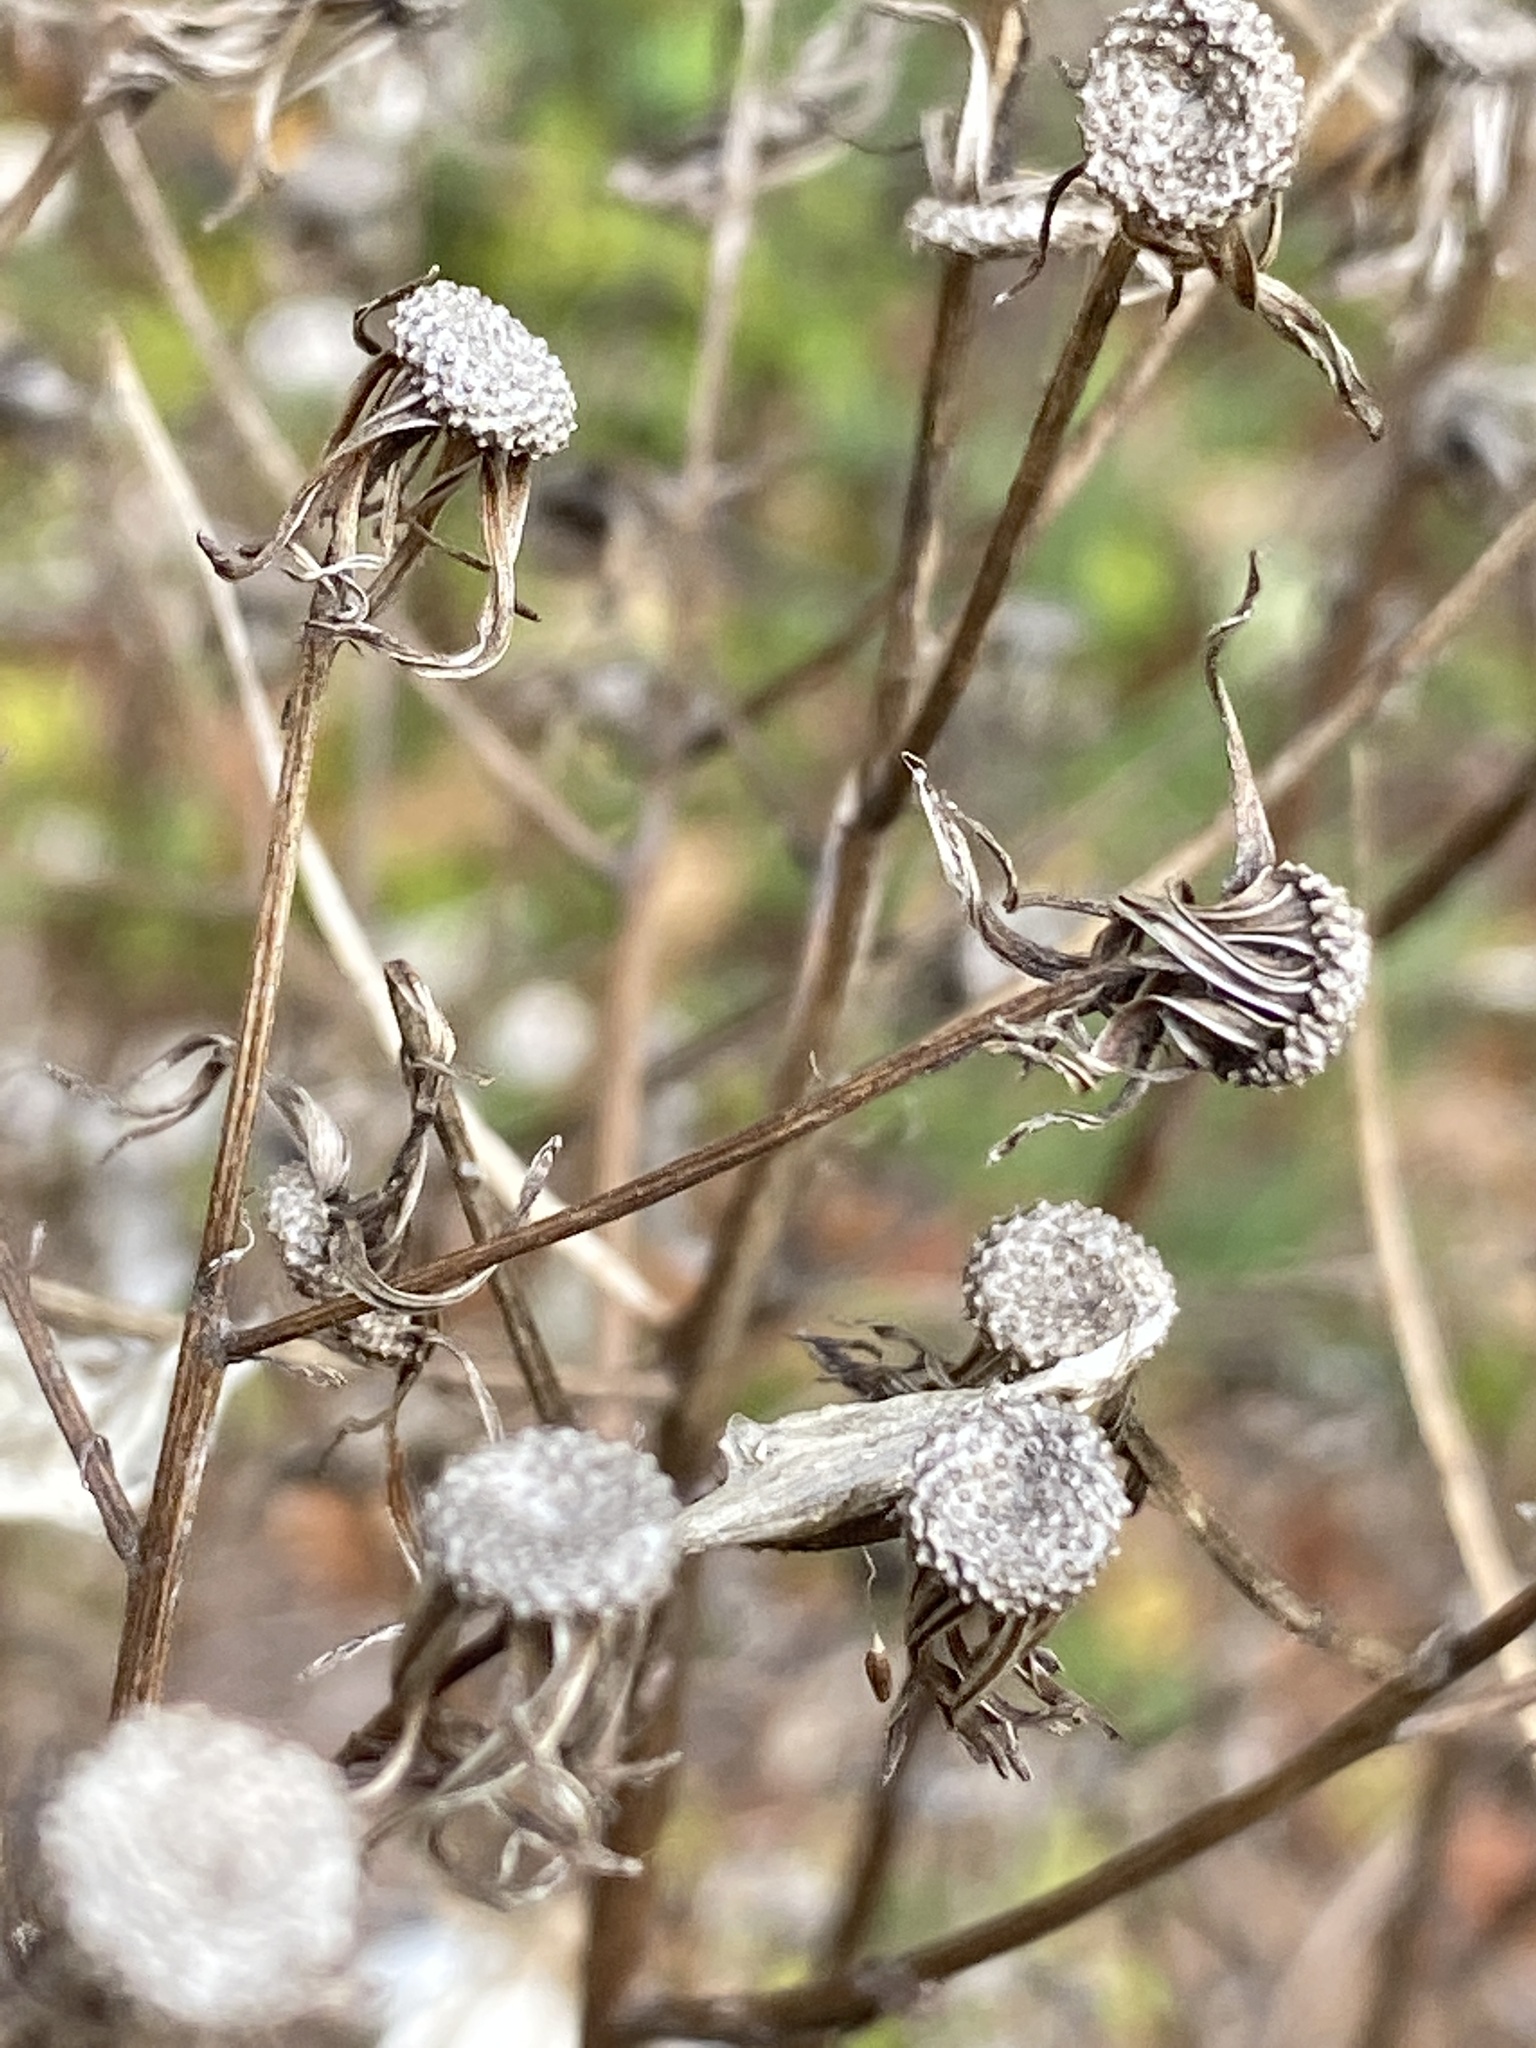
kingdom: Plantae
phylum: Tracheophyta
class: Magnoliopsida
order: Asterales
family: Asteraceae
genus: Erechtites
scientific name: Erechtites hieraciifolius
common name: American burnweed
